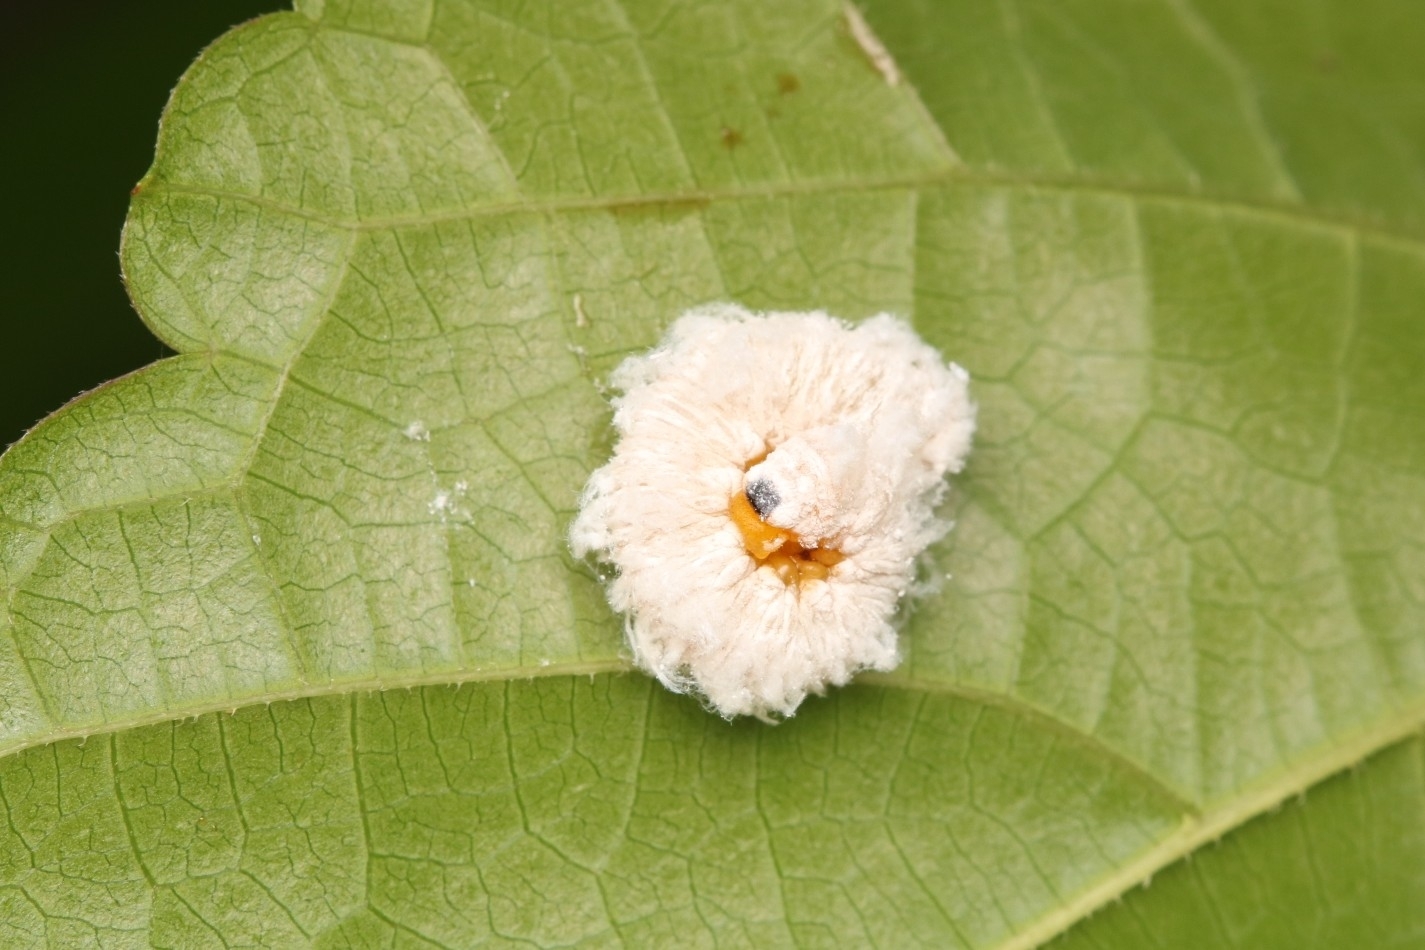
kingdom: Animalia
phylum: Arthropoda
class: Insecta
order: Hymenoptera
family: Tenthredinidae
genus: Macremphytus
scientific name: Macremphytus testaceus
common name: Dogwood sawfly
